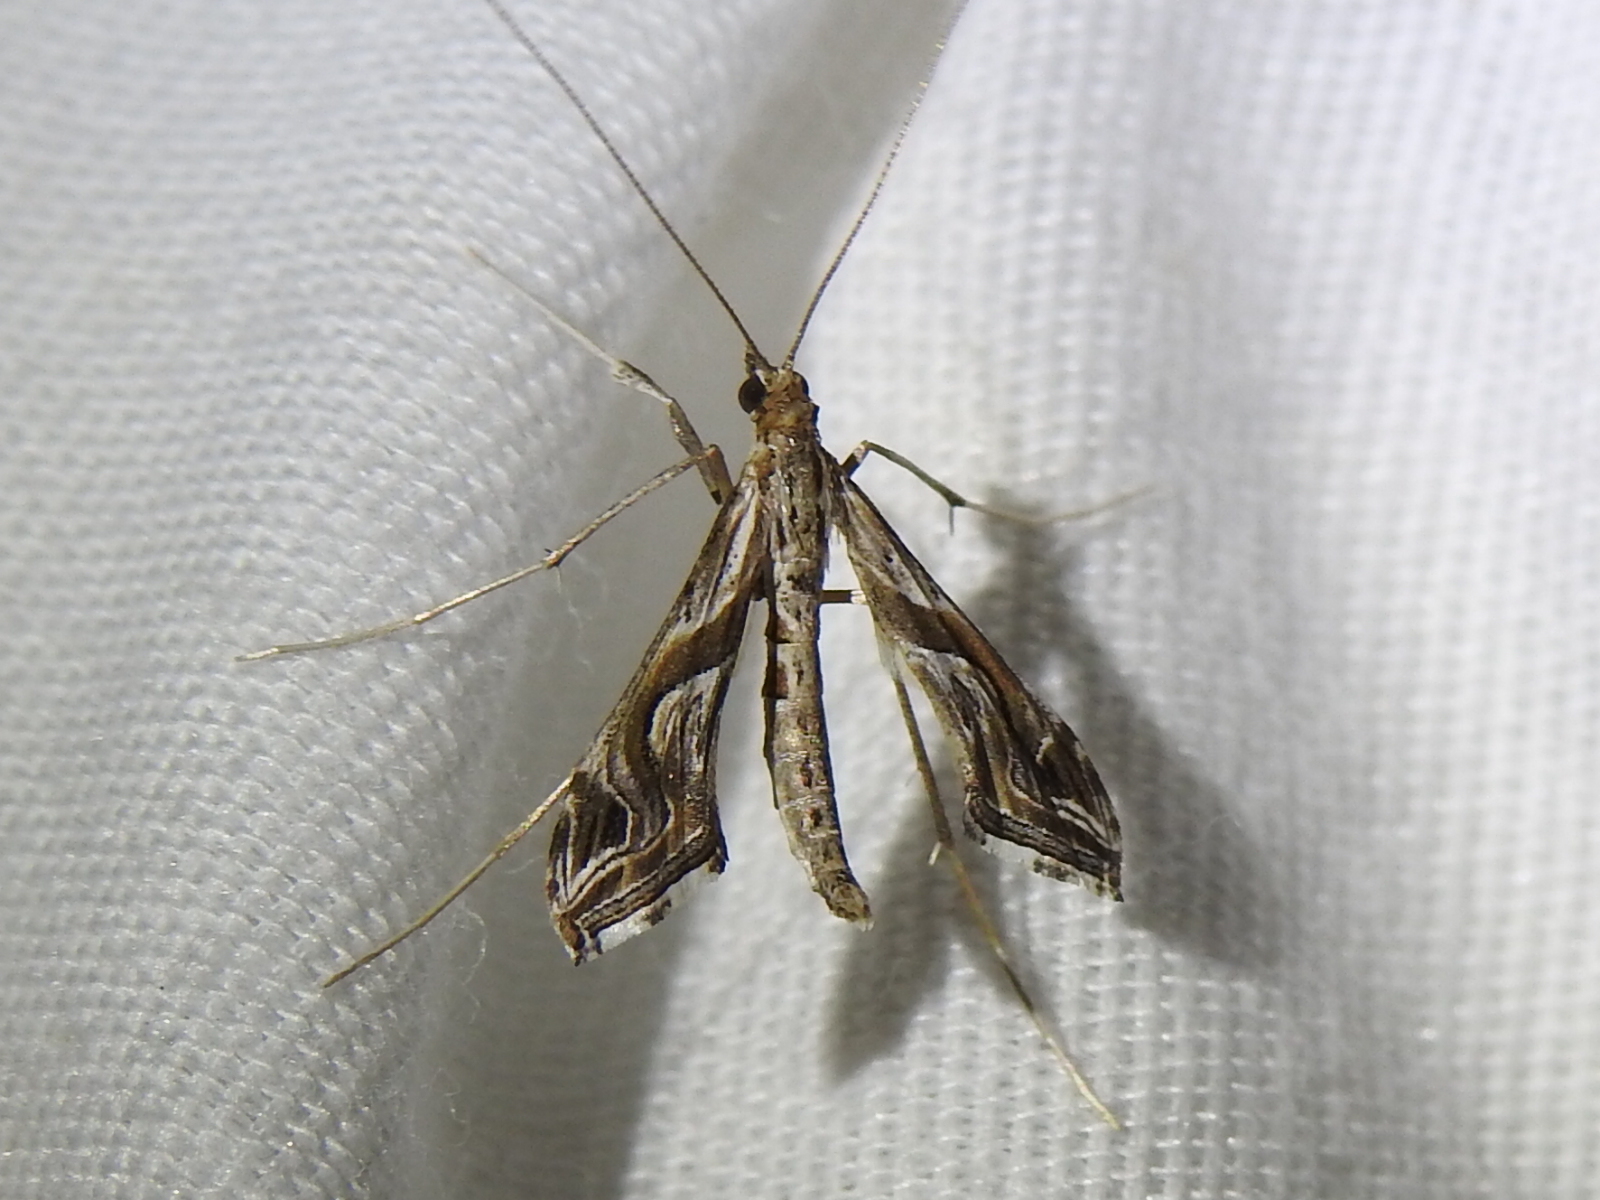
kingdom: Animalia
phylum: Arthropoda
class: Insecta
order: Lepidoptera
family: Crambidae
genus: Lineodes
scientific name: Lineodes integra
